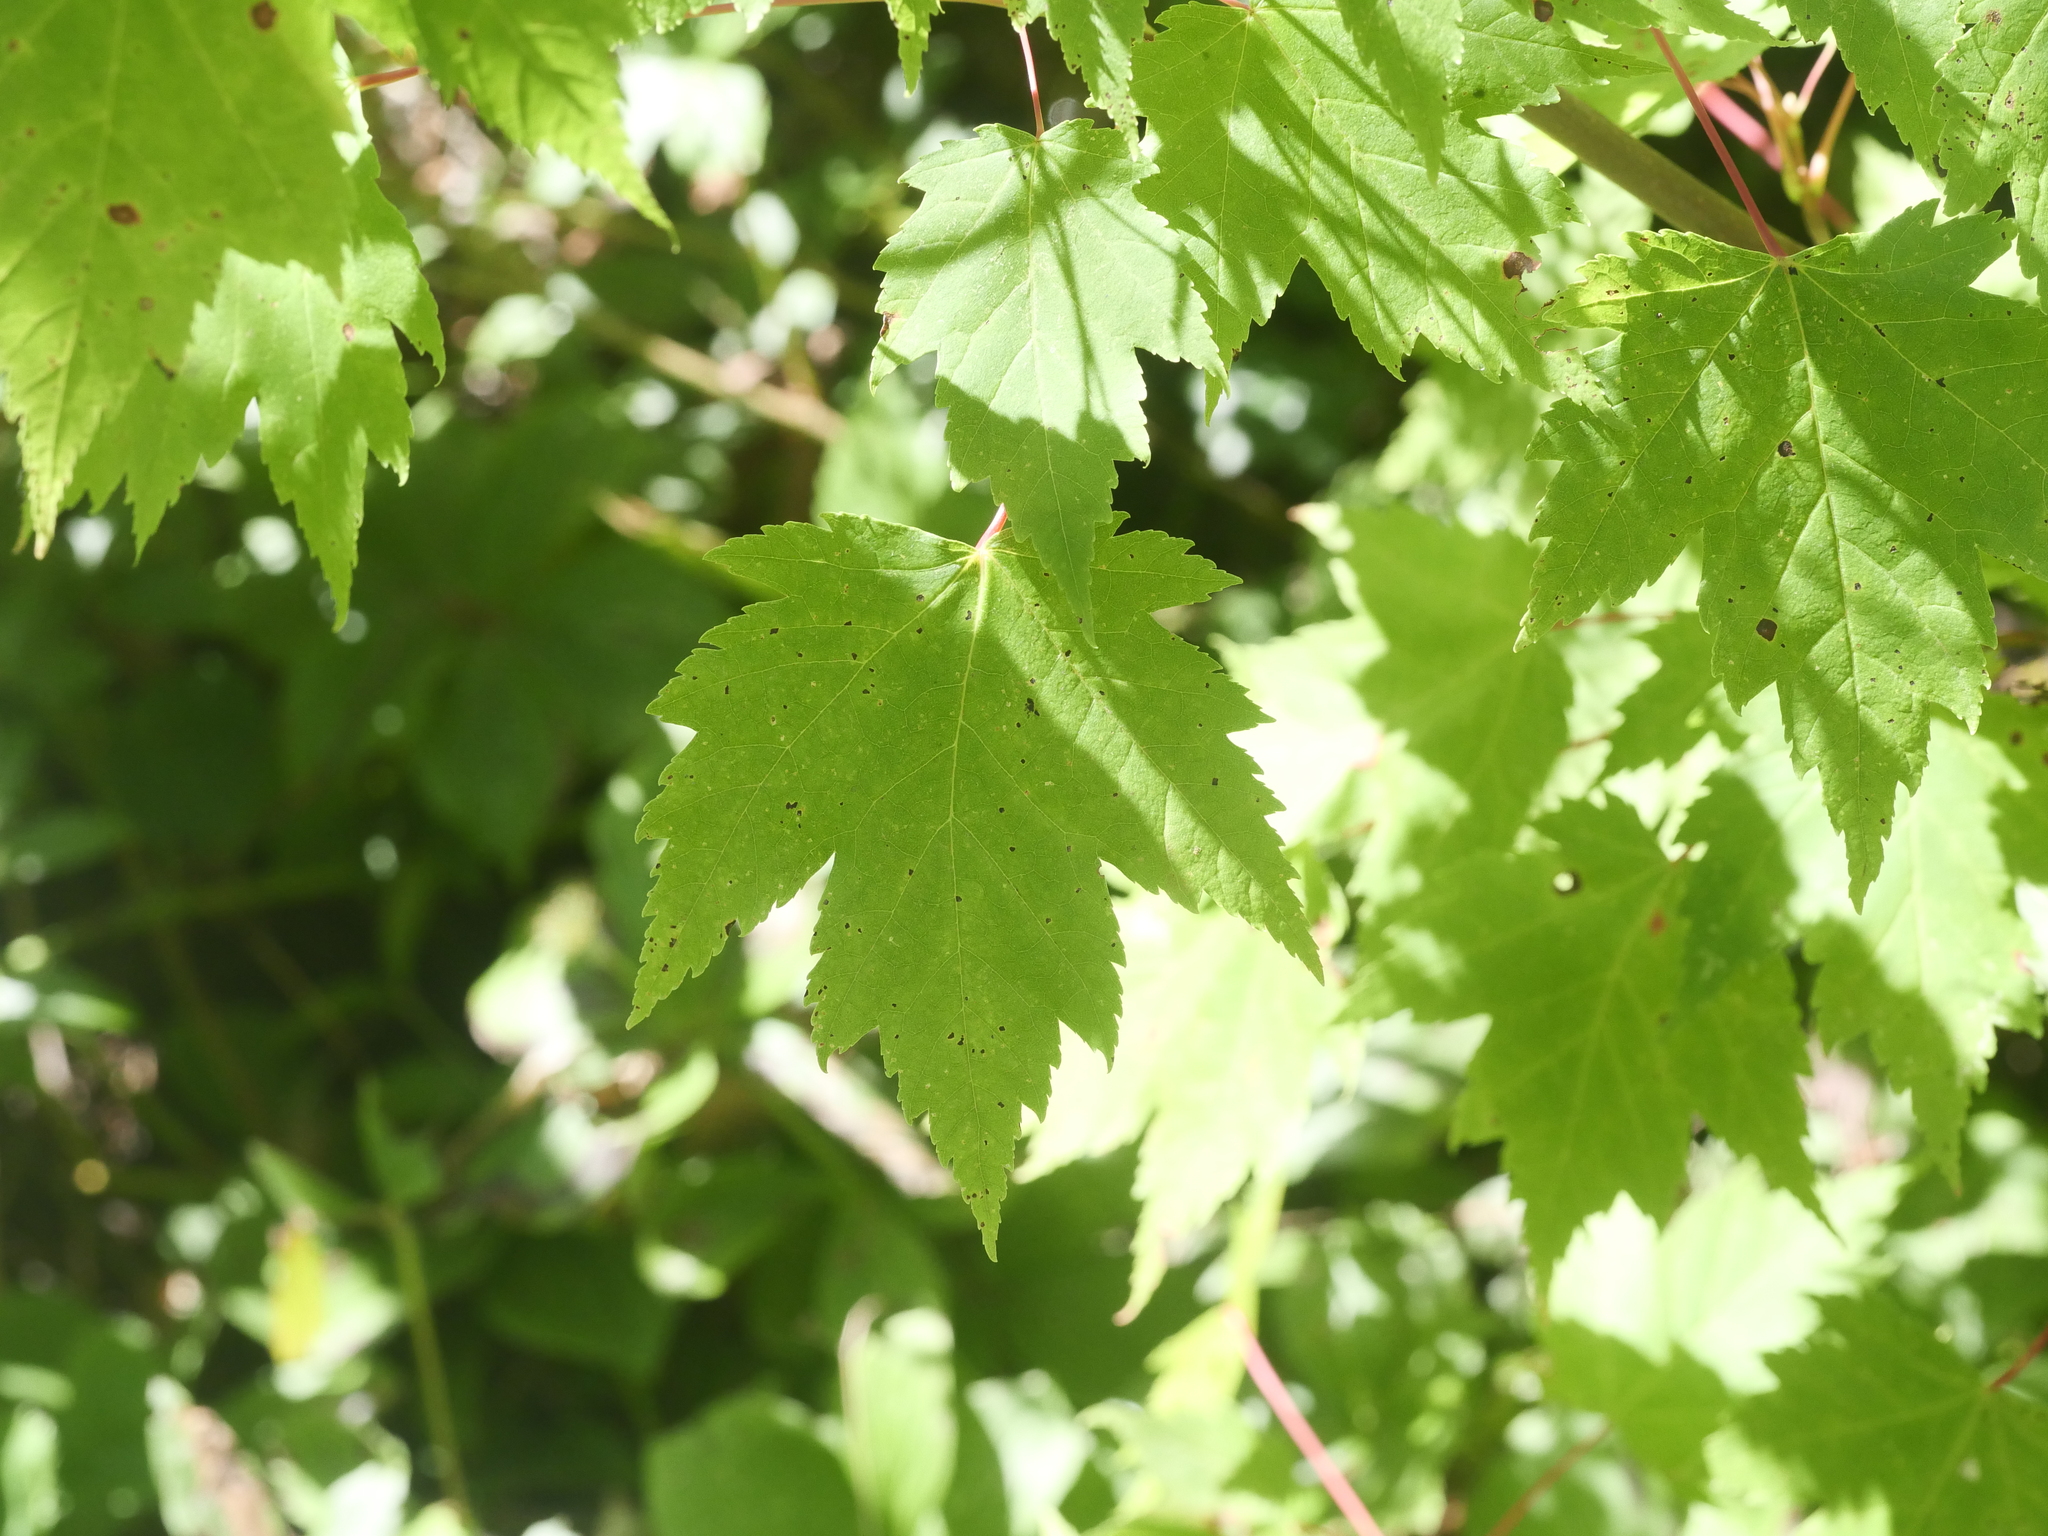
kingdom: Plantae
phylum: Tracheophyta
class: Magnoliopsida
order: Sapindales
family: Sapindaceae
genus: Acer
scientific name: Acer rubrum
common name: Red maple
